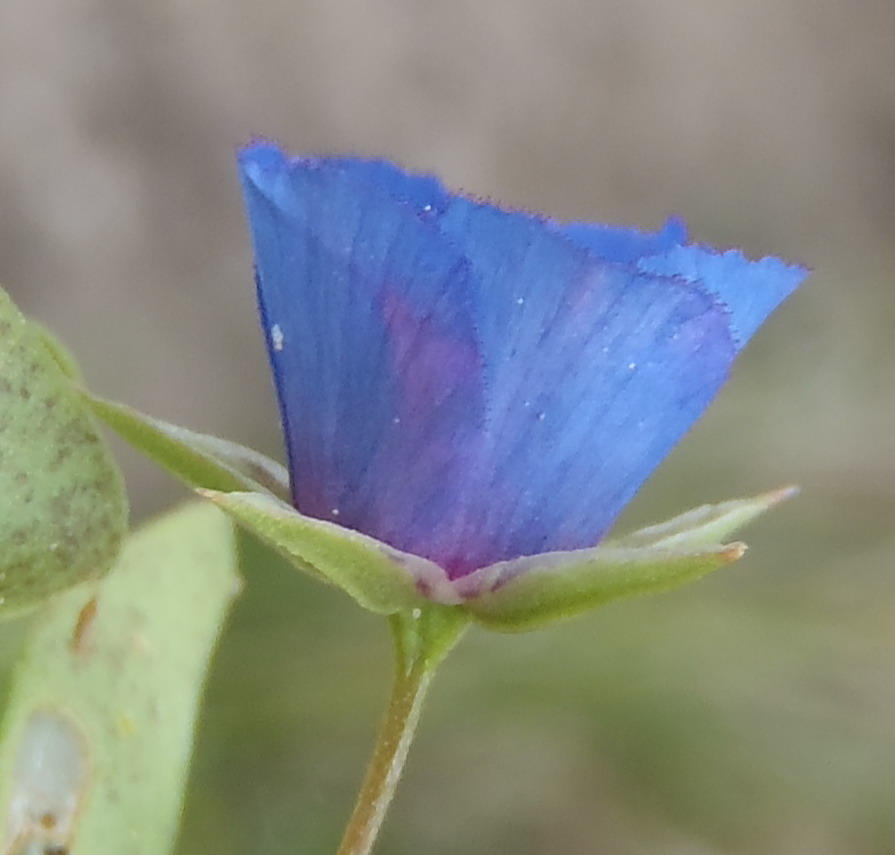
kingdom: Plantae
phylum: Tracheophyta
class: Magnoliopsida
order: Ericales
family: Primulaceae
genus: Lysimachia
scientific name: Lysimachia loeflingii
